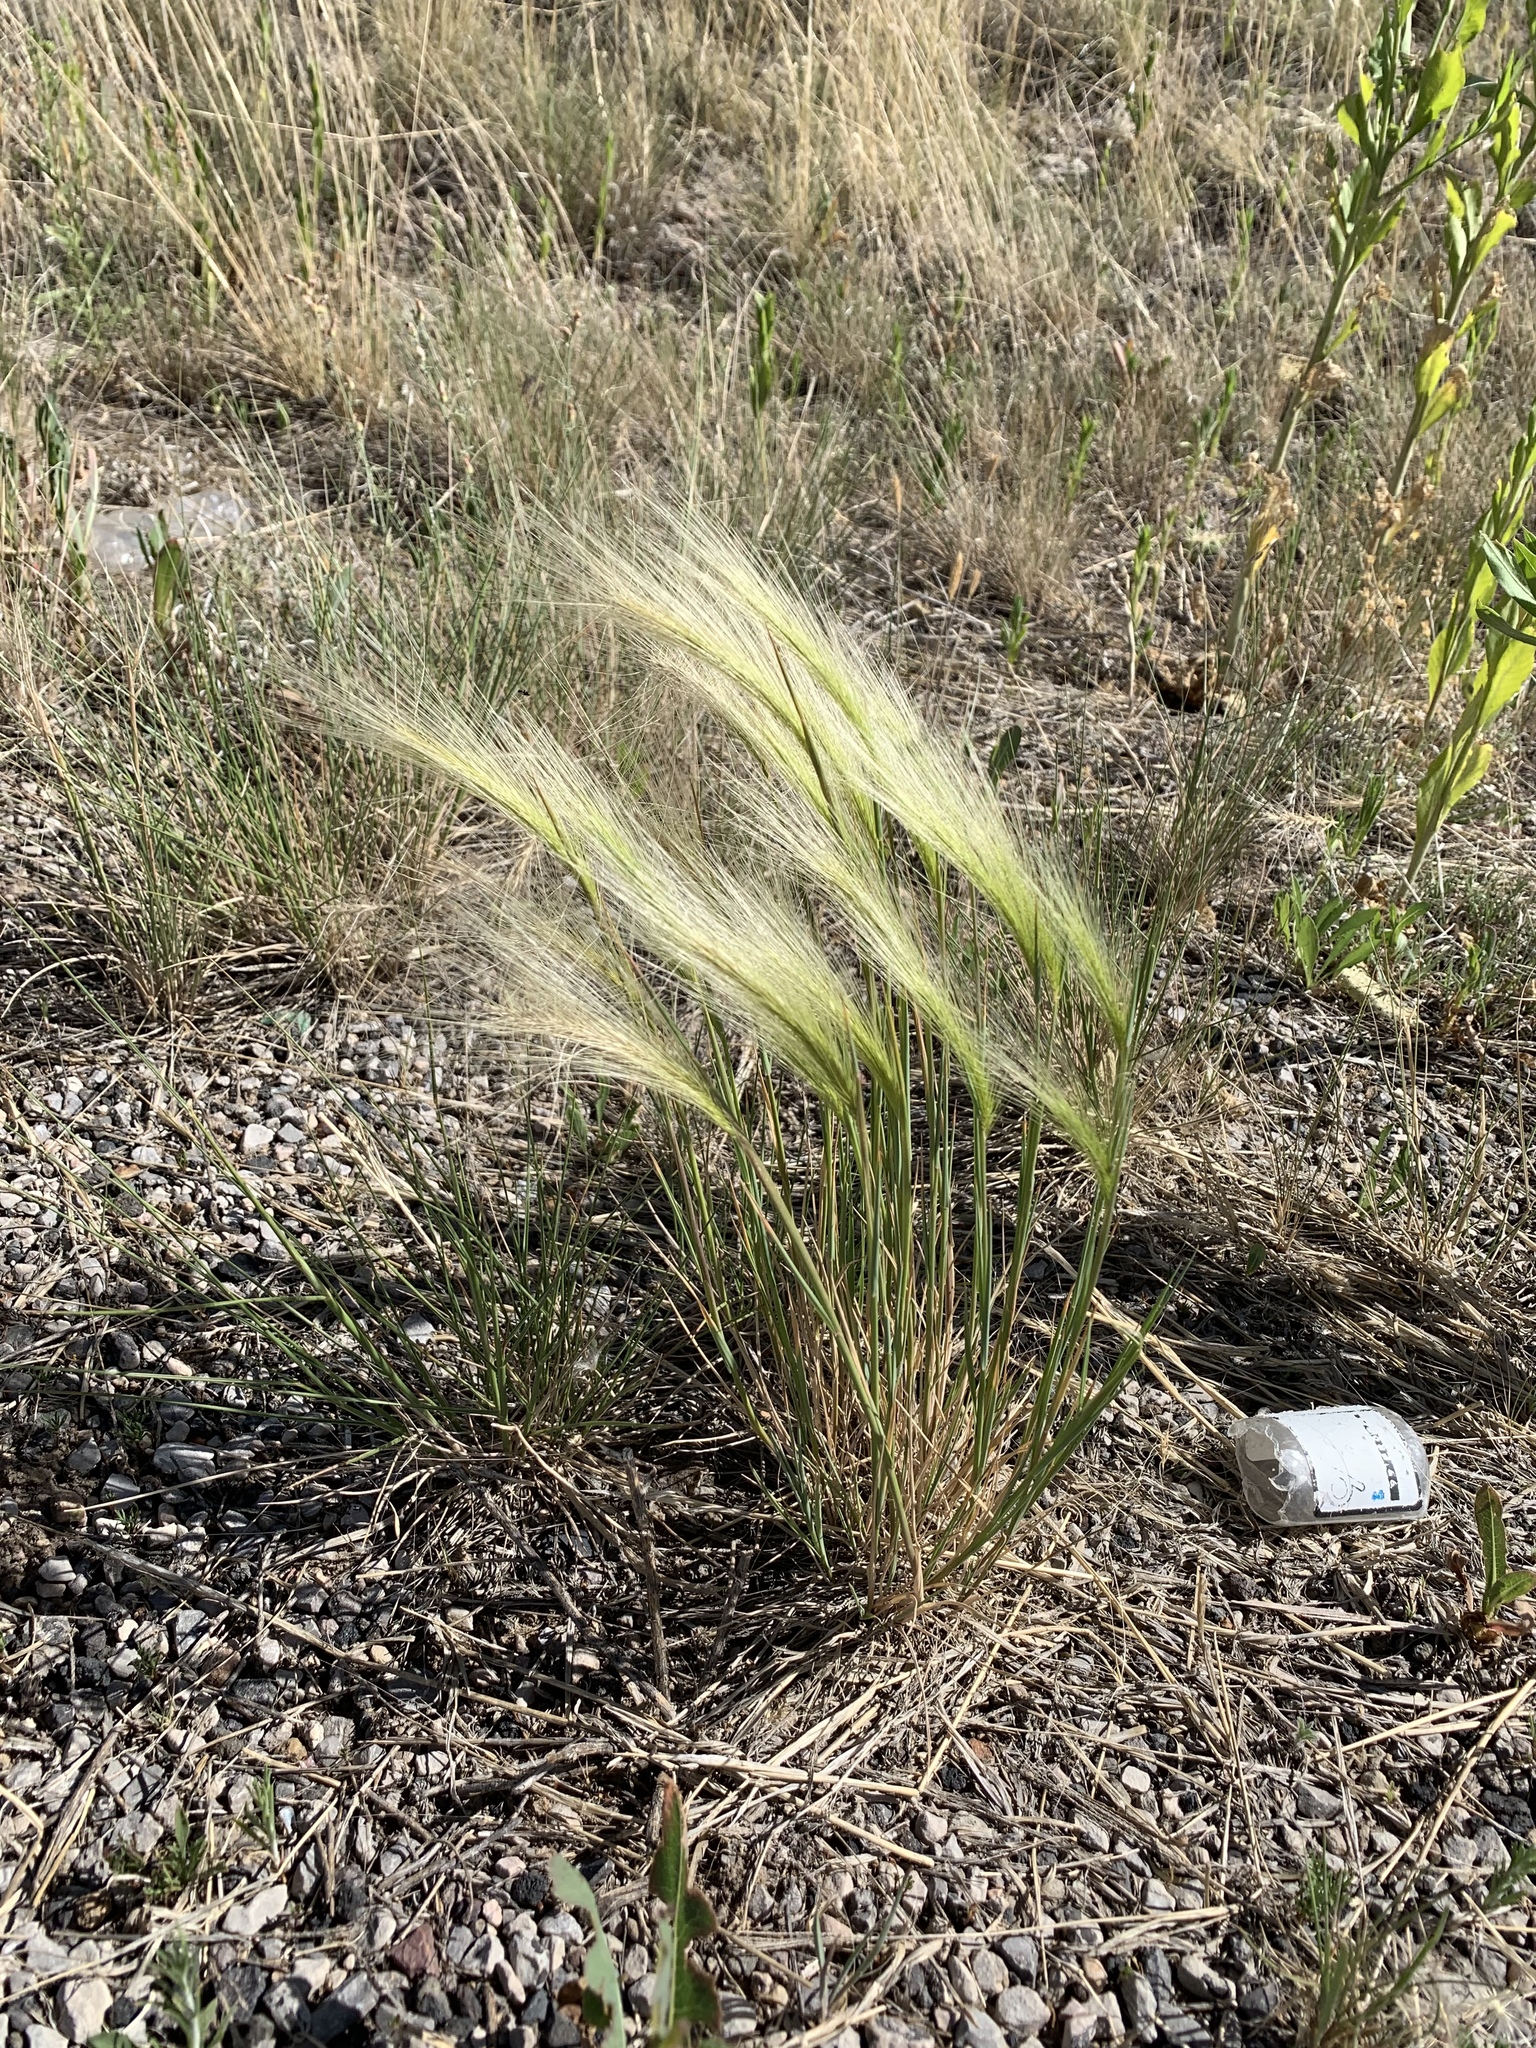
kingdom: Plantae
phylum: Tracheophyta
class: Liliopsida
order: Poales
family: Poaceae
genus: Hordeum
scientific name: Hordeum jubatum
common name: Foxtail barley
